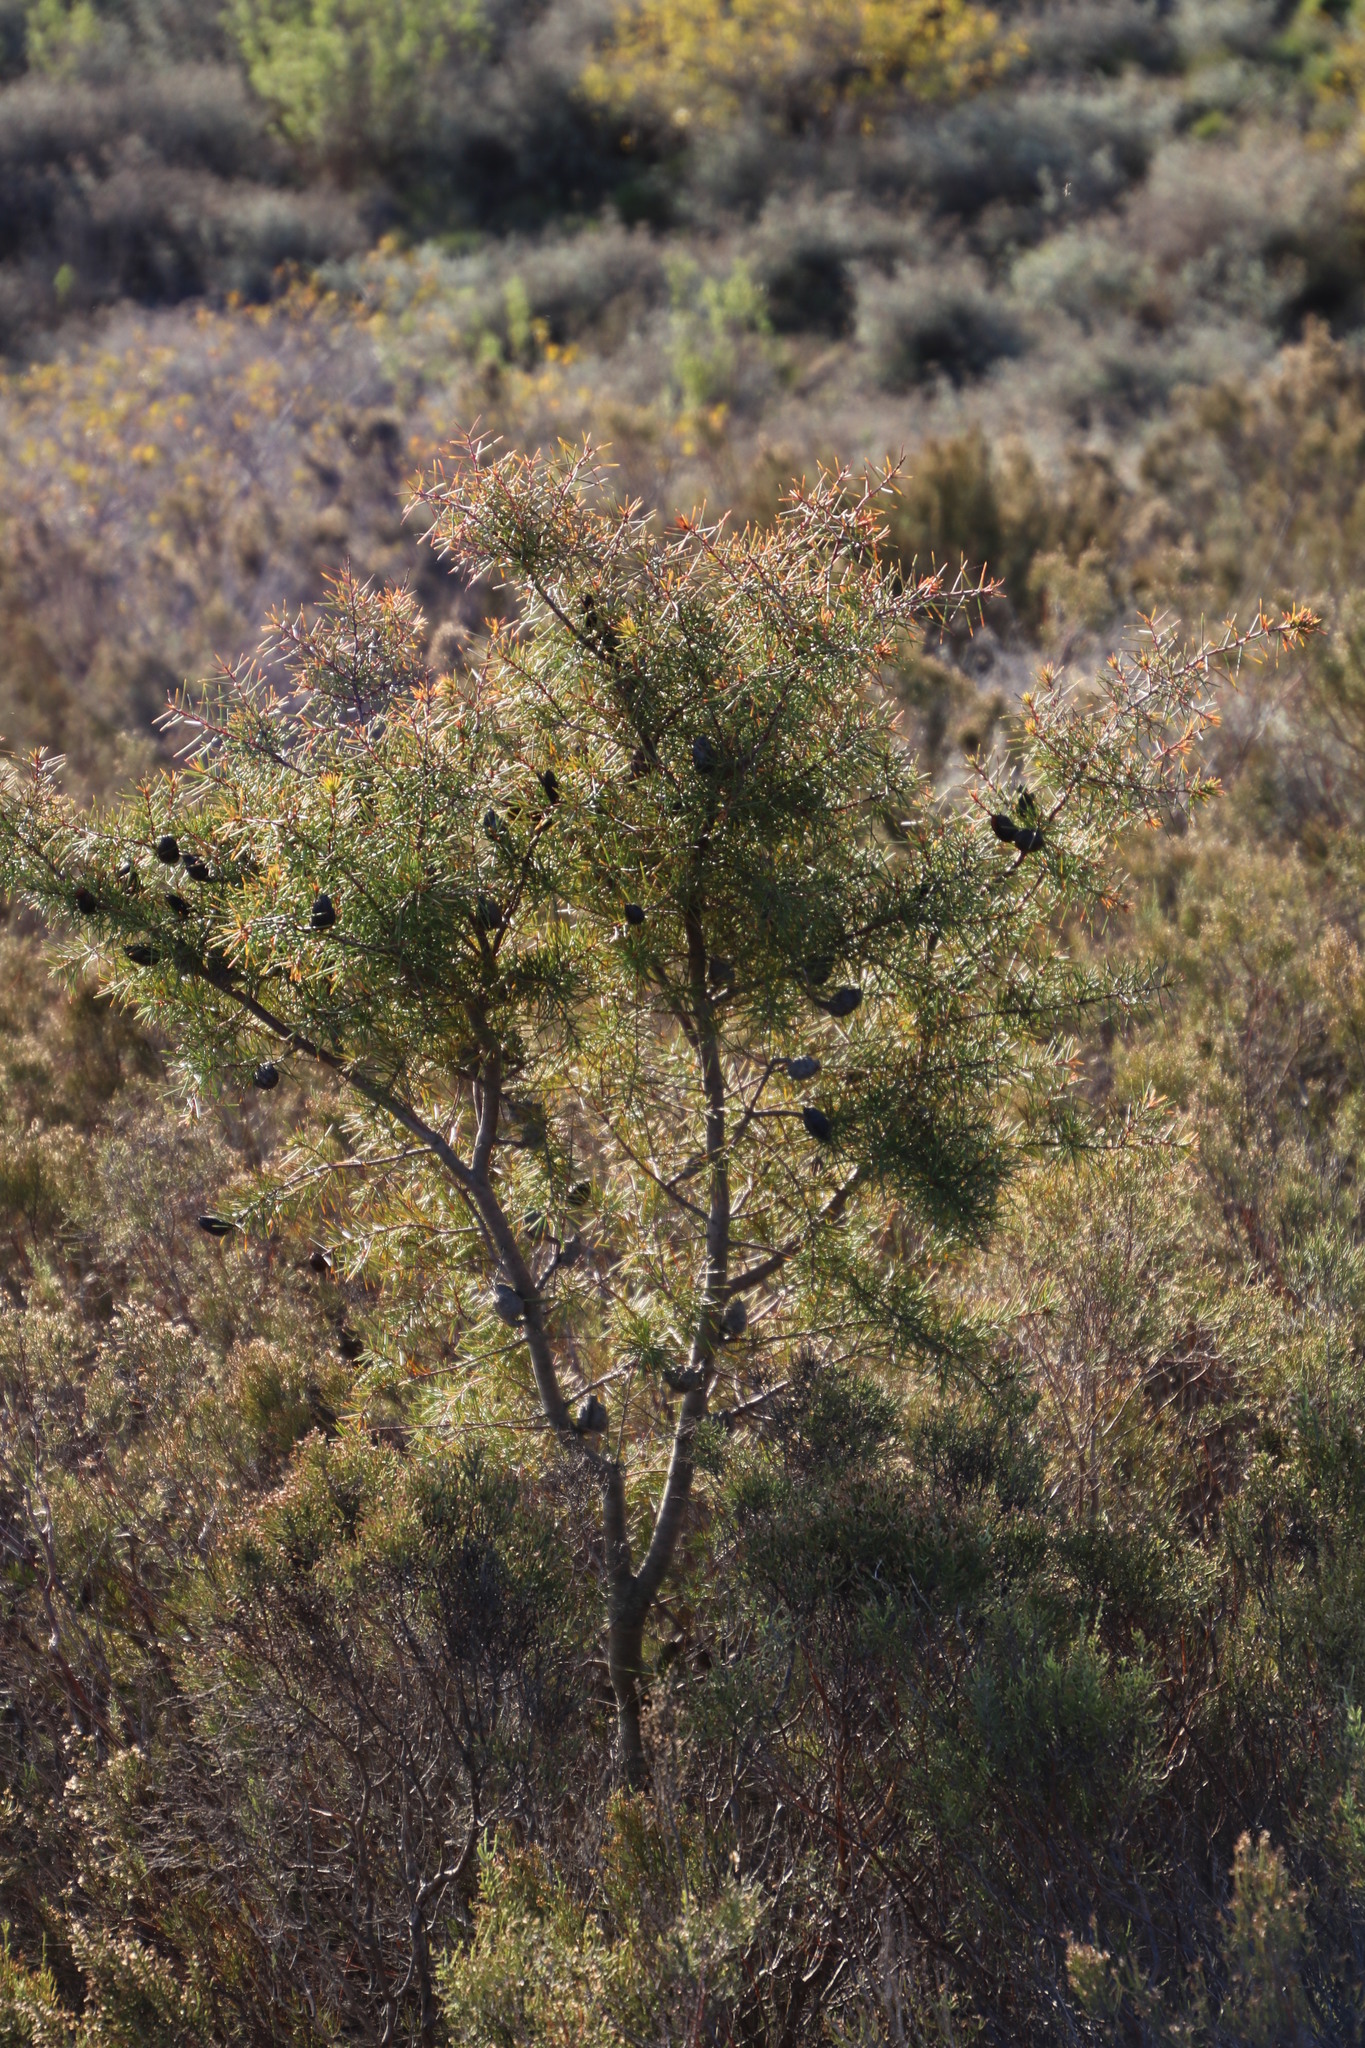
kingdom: Plantae
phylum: Tracheophyta
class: Magnoliopsida
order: Proteales
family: Proteaceae
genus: Hakea
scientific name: Hakea sericea
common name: Needle bush
